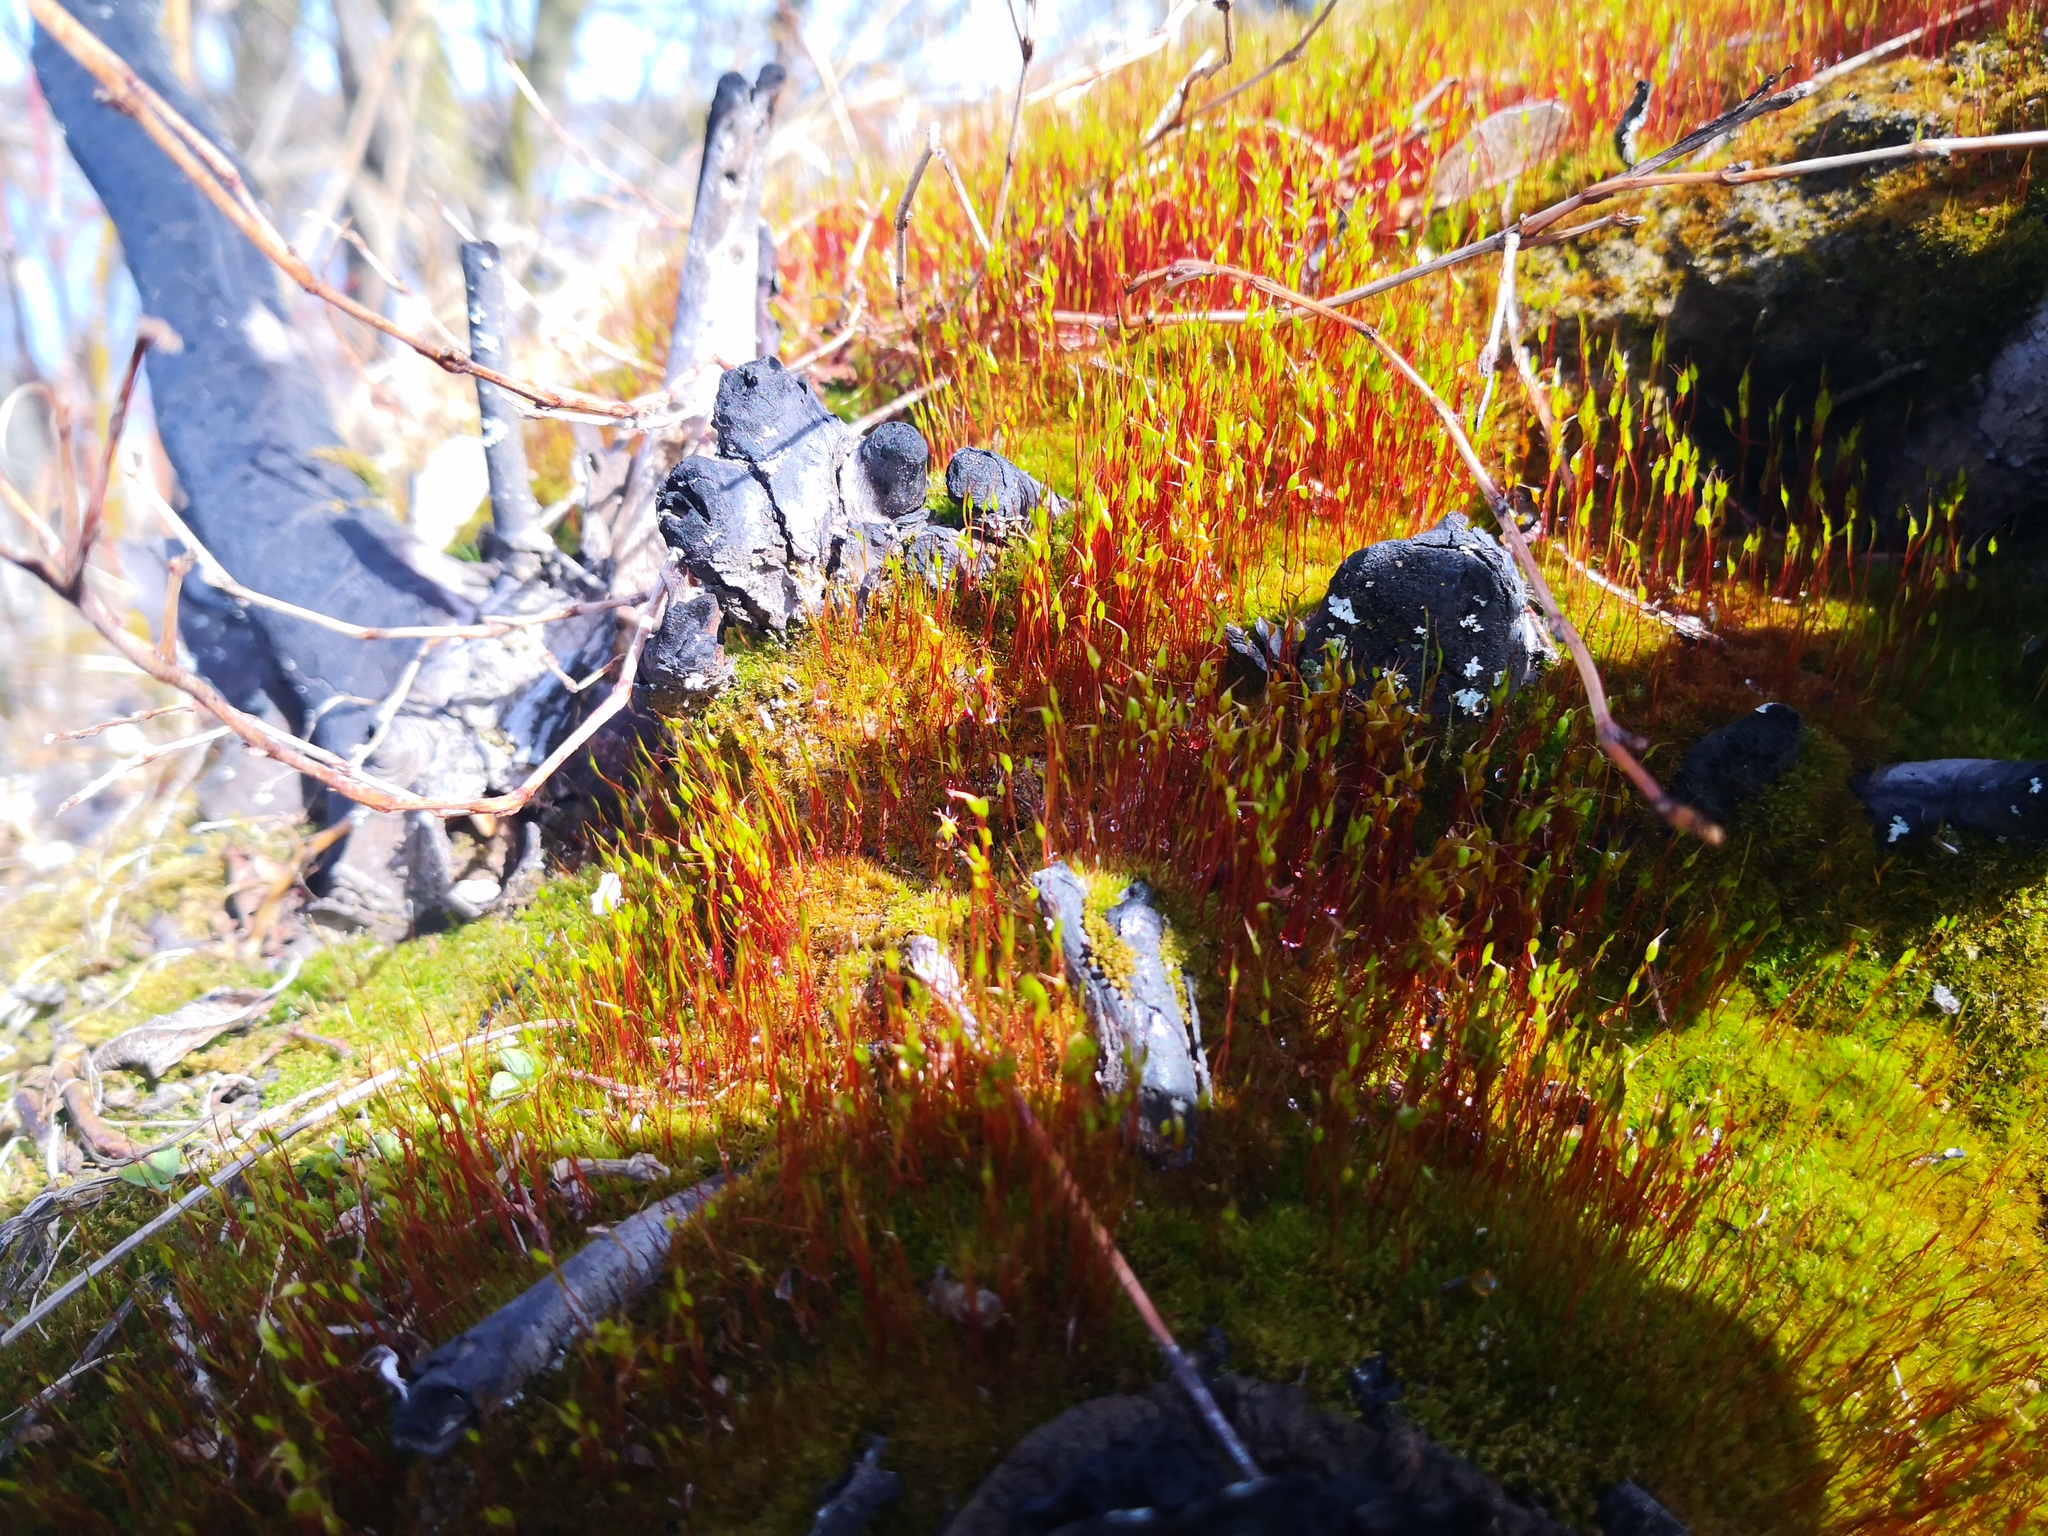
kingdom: Plantae
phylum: Bryophyta
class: Bryopsida
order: Dicranales
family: Ditrichaceae
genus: Ceratodon
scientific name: Ceratodon purpureus
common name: Redshank
